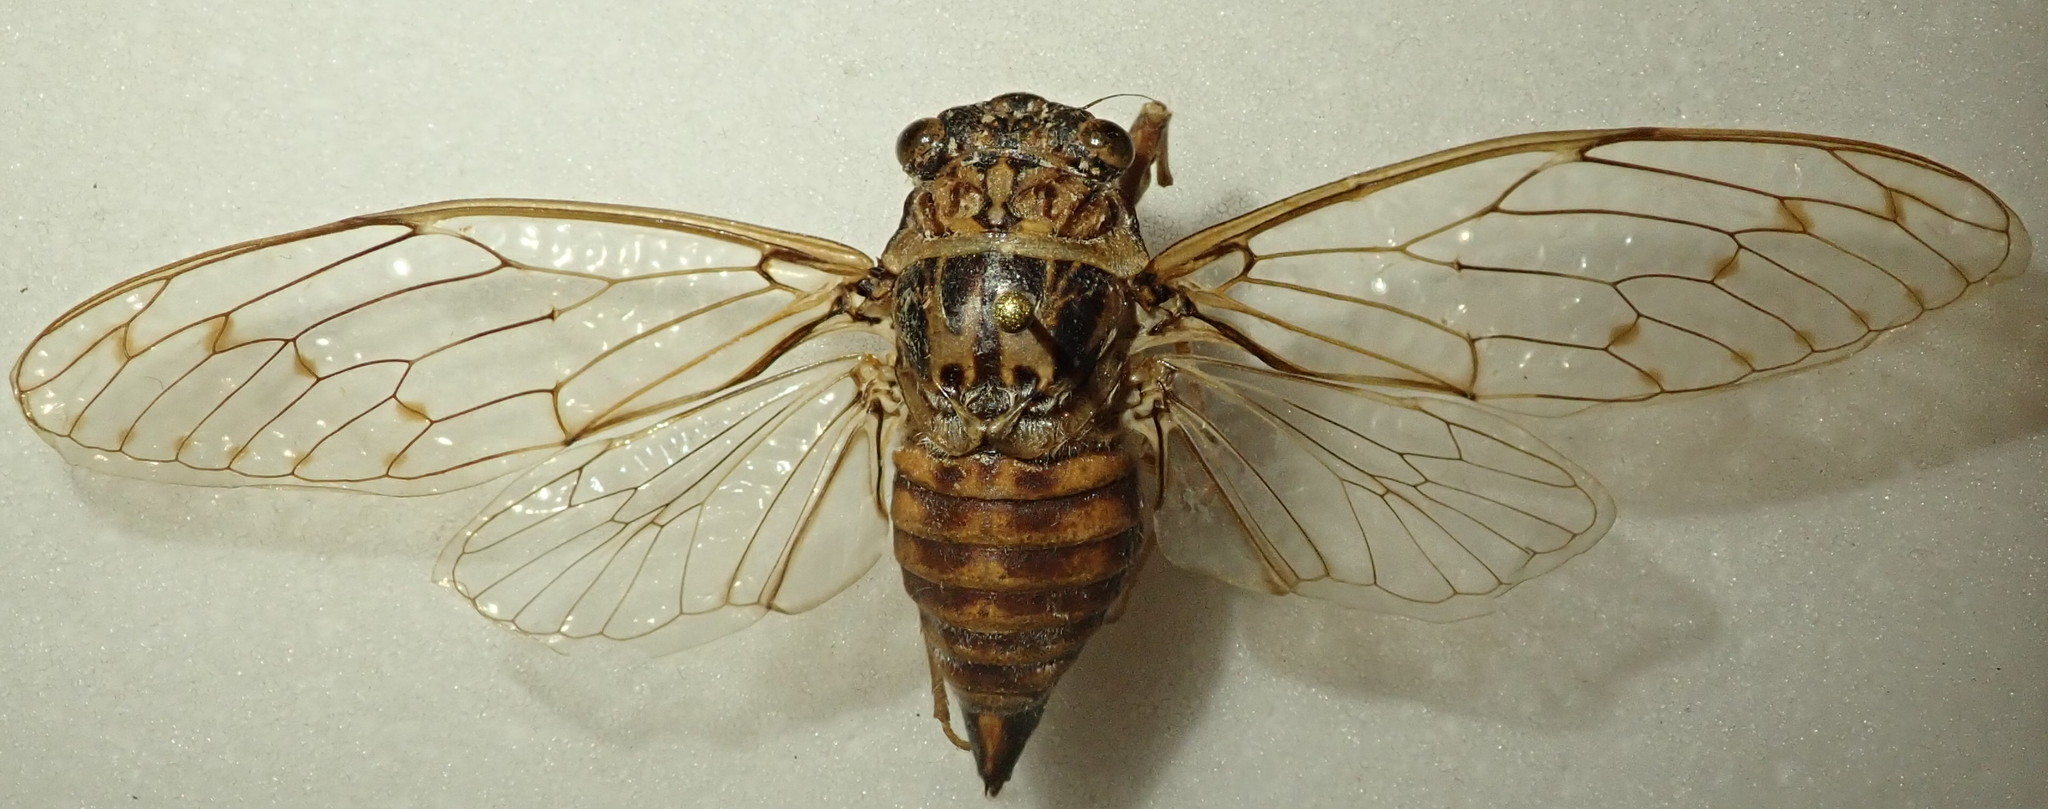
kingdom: Animalia
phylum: Arthropoda
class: Insecta
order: Hemiptera
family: Cicadidae
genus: Cicada
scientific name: Cicada orni
